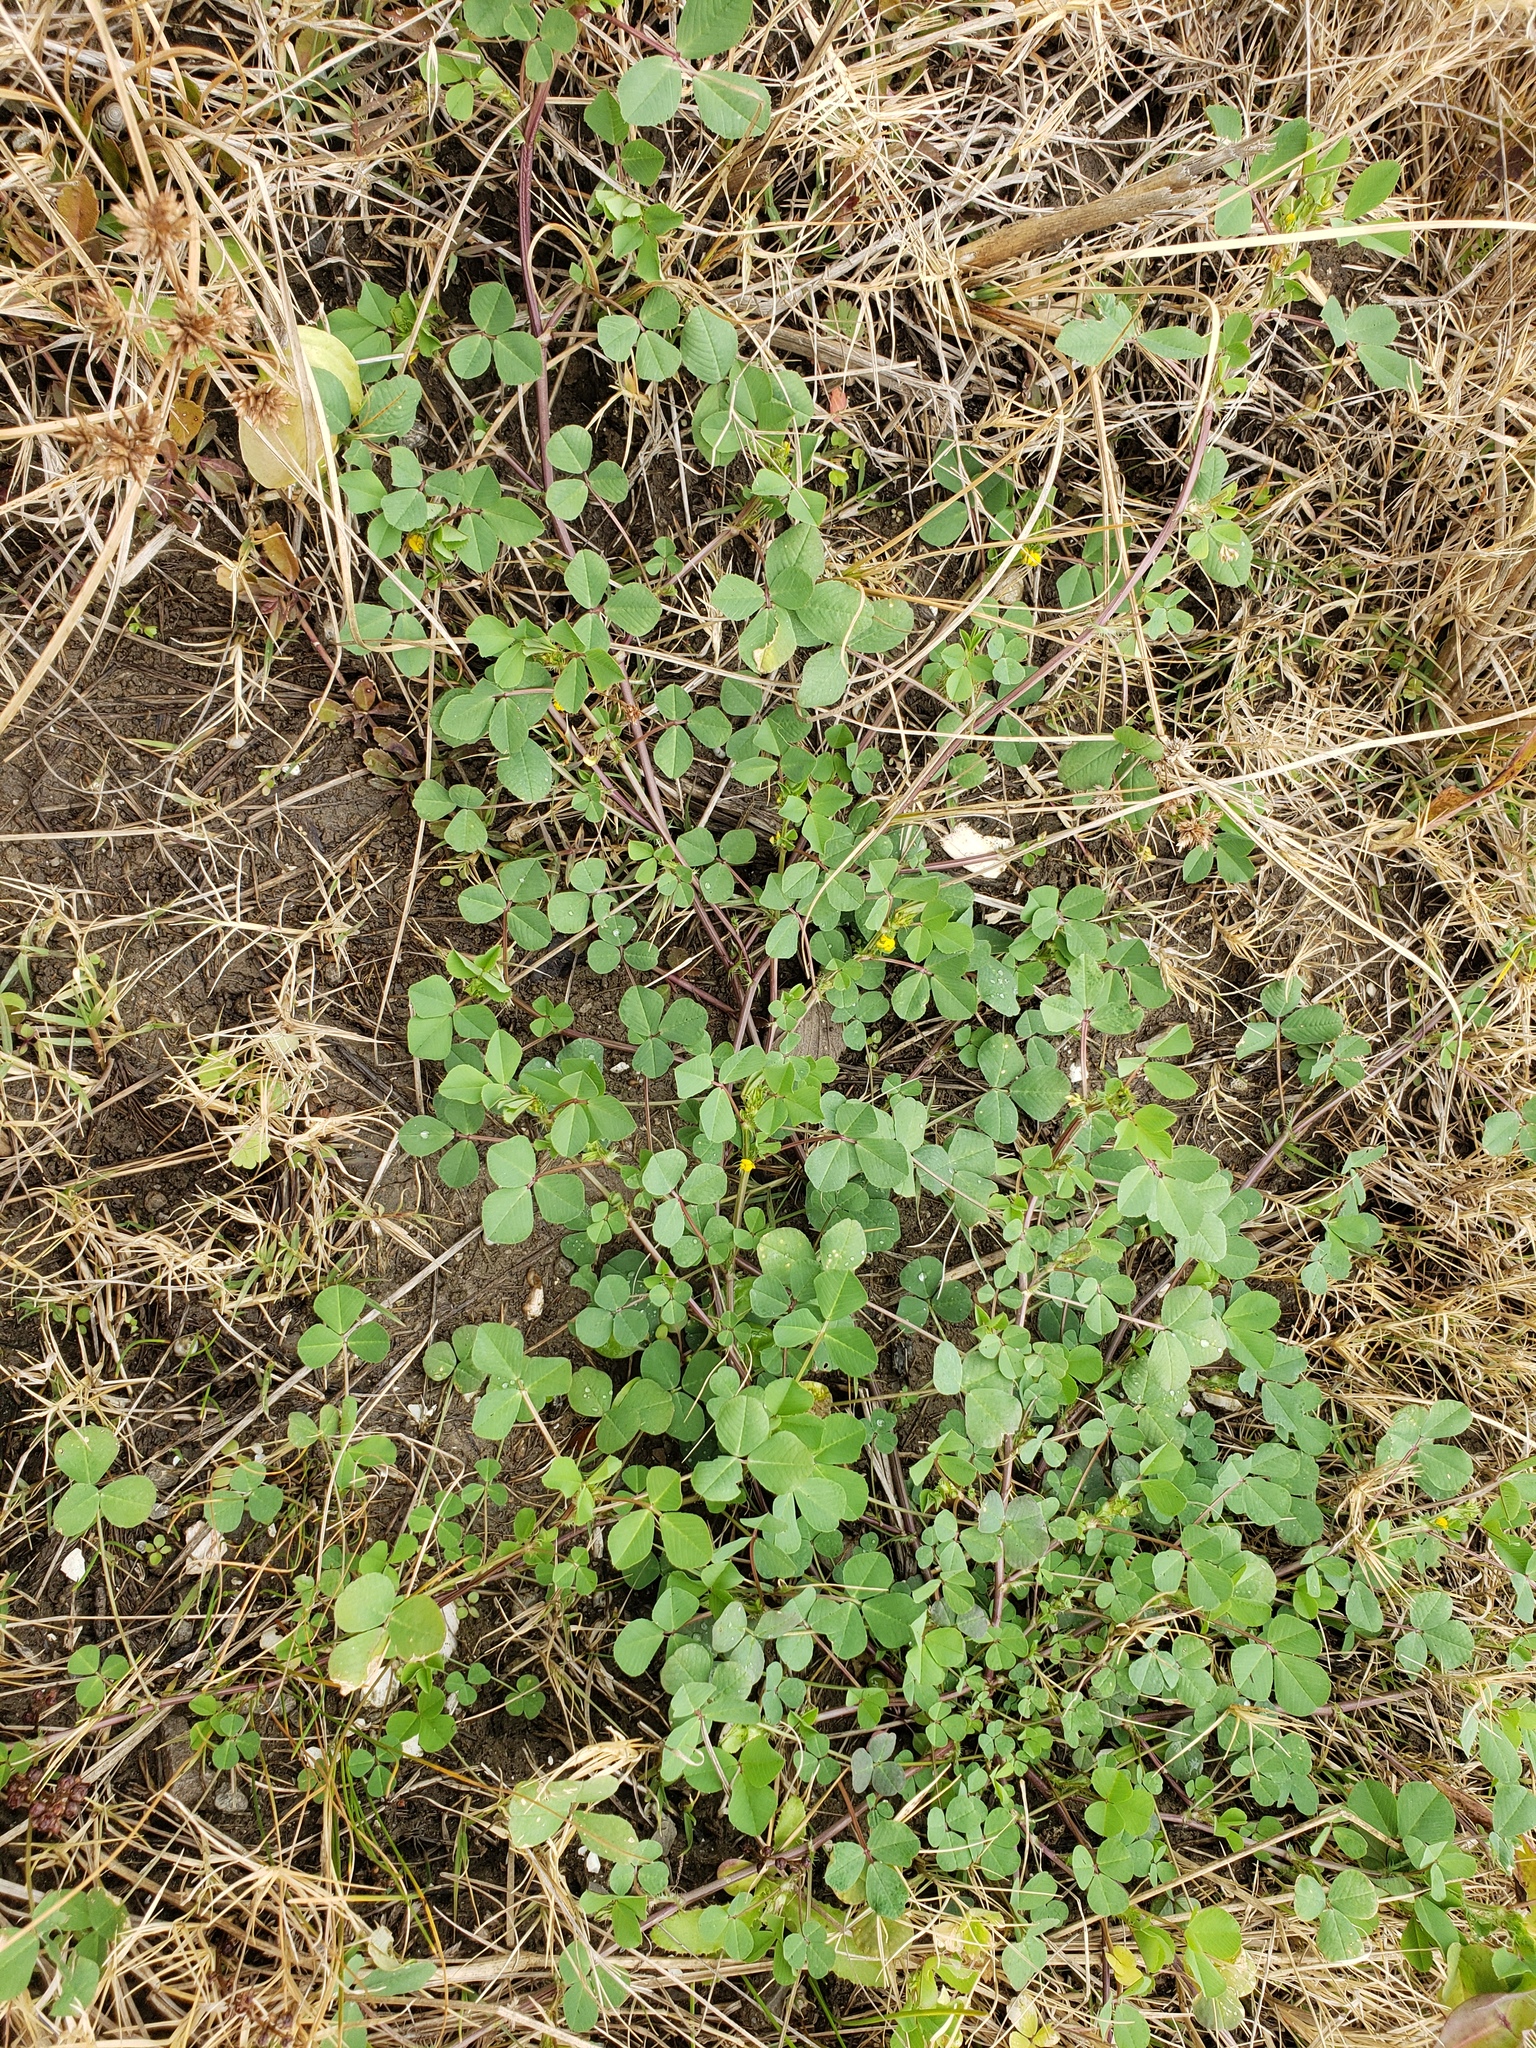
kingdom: Plantae
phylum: Tracheophyta
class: Magnoliopsida
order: Fabales
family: Fabaceae
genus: Medicago
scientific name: Medicago polymorpha
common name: Burclover
